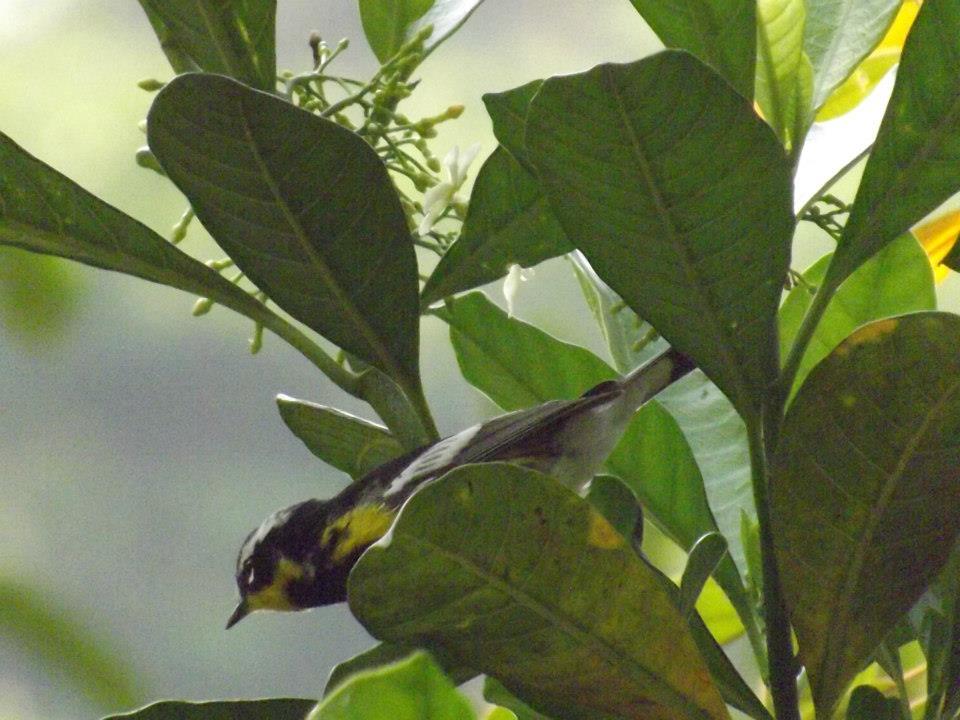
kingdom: Animalia
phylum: Chordata
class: Aves
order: Passeriformes
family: Parulidae
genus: Setophaga
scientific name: Setophaga magnolia
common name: Magnolia warbler
